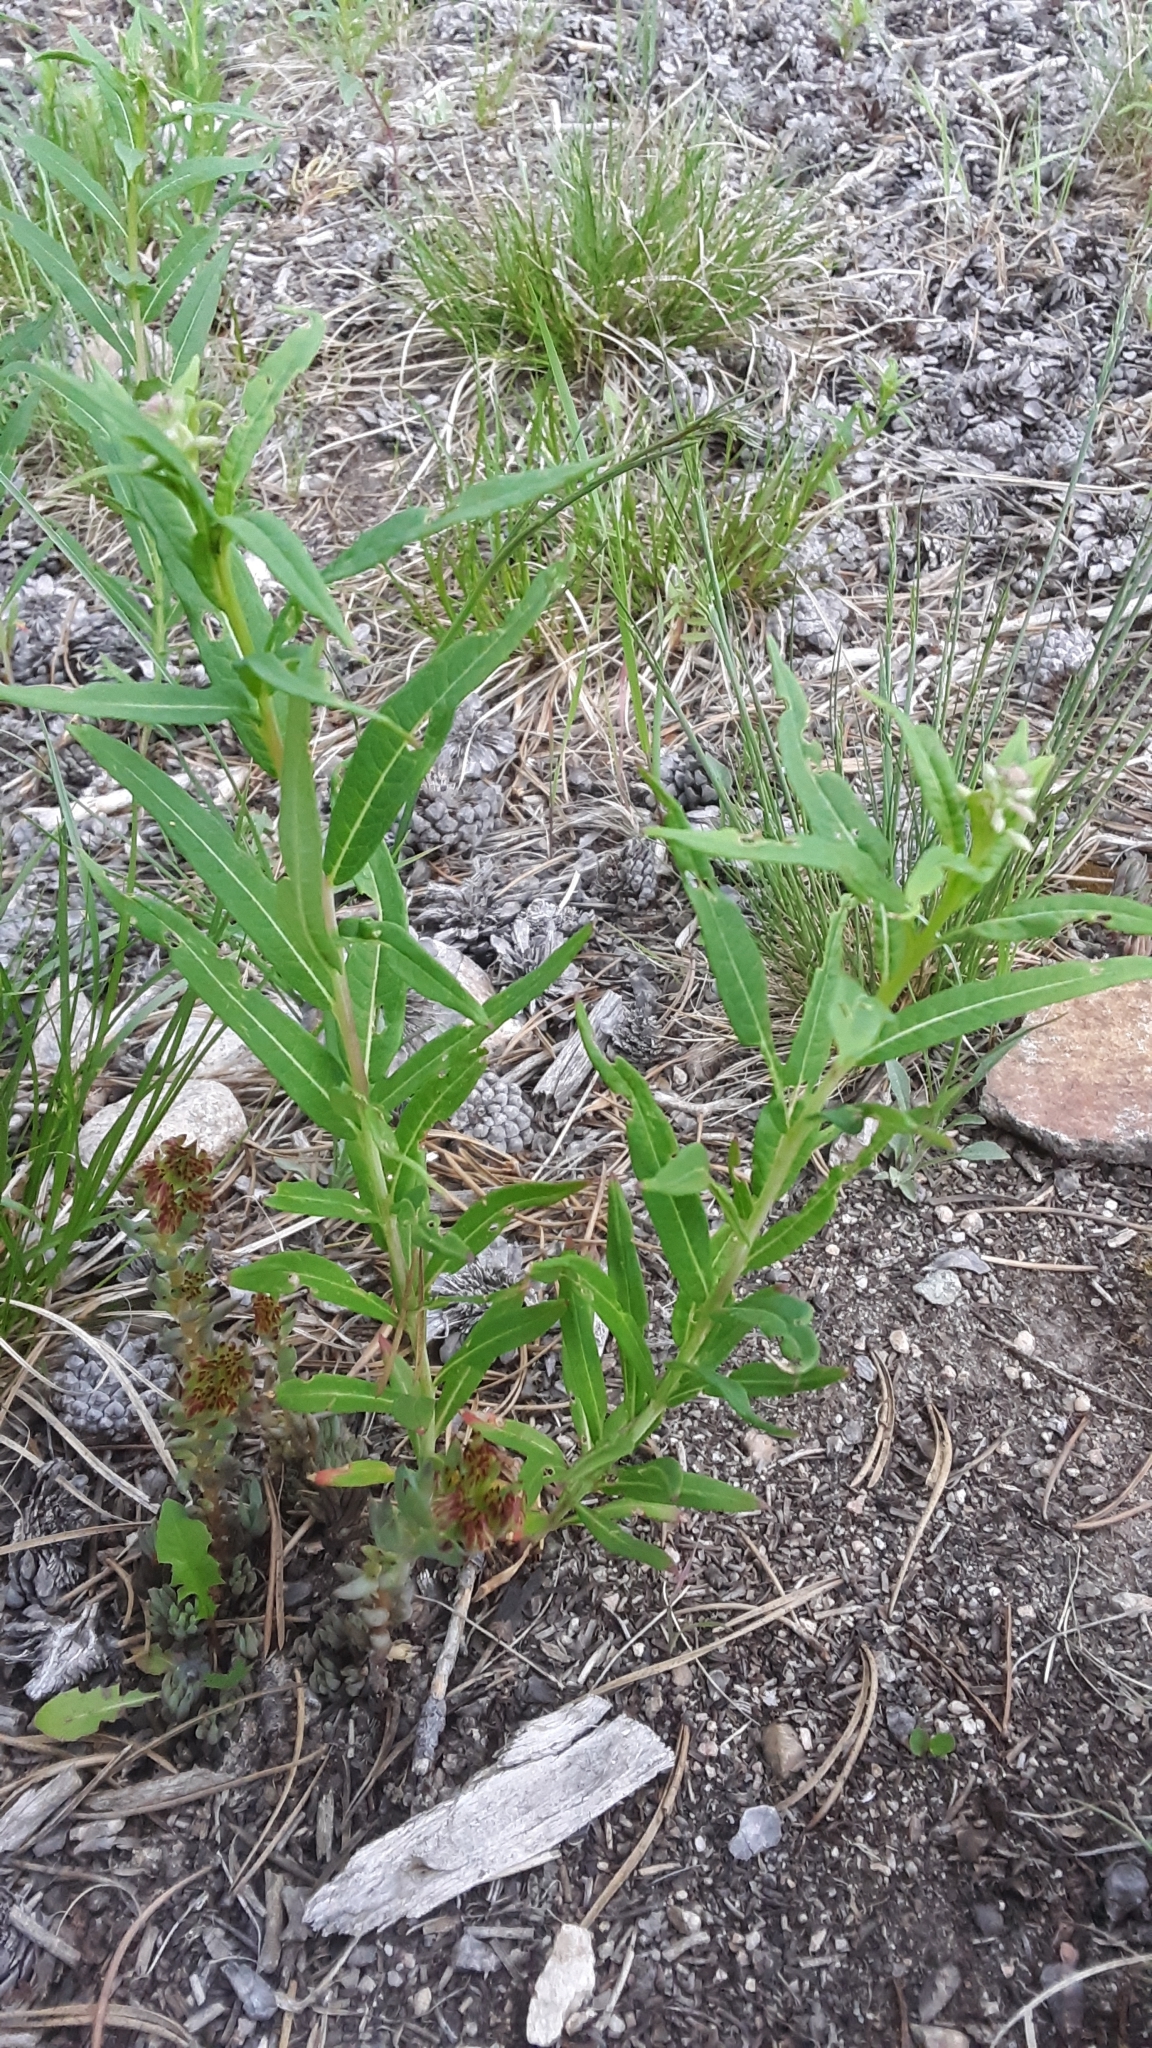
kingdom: Plantae
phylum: Tracheophyta
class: Magnoliopsida
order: Myrtales
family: Onagraceae
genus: Chamaenerion
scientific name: Chamaenerion angustifolium
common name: Fireweed
